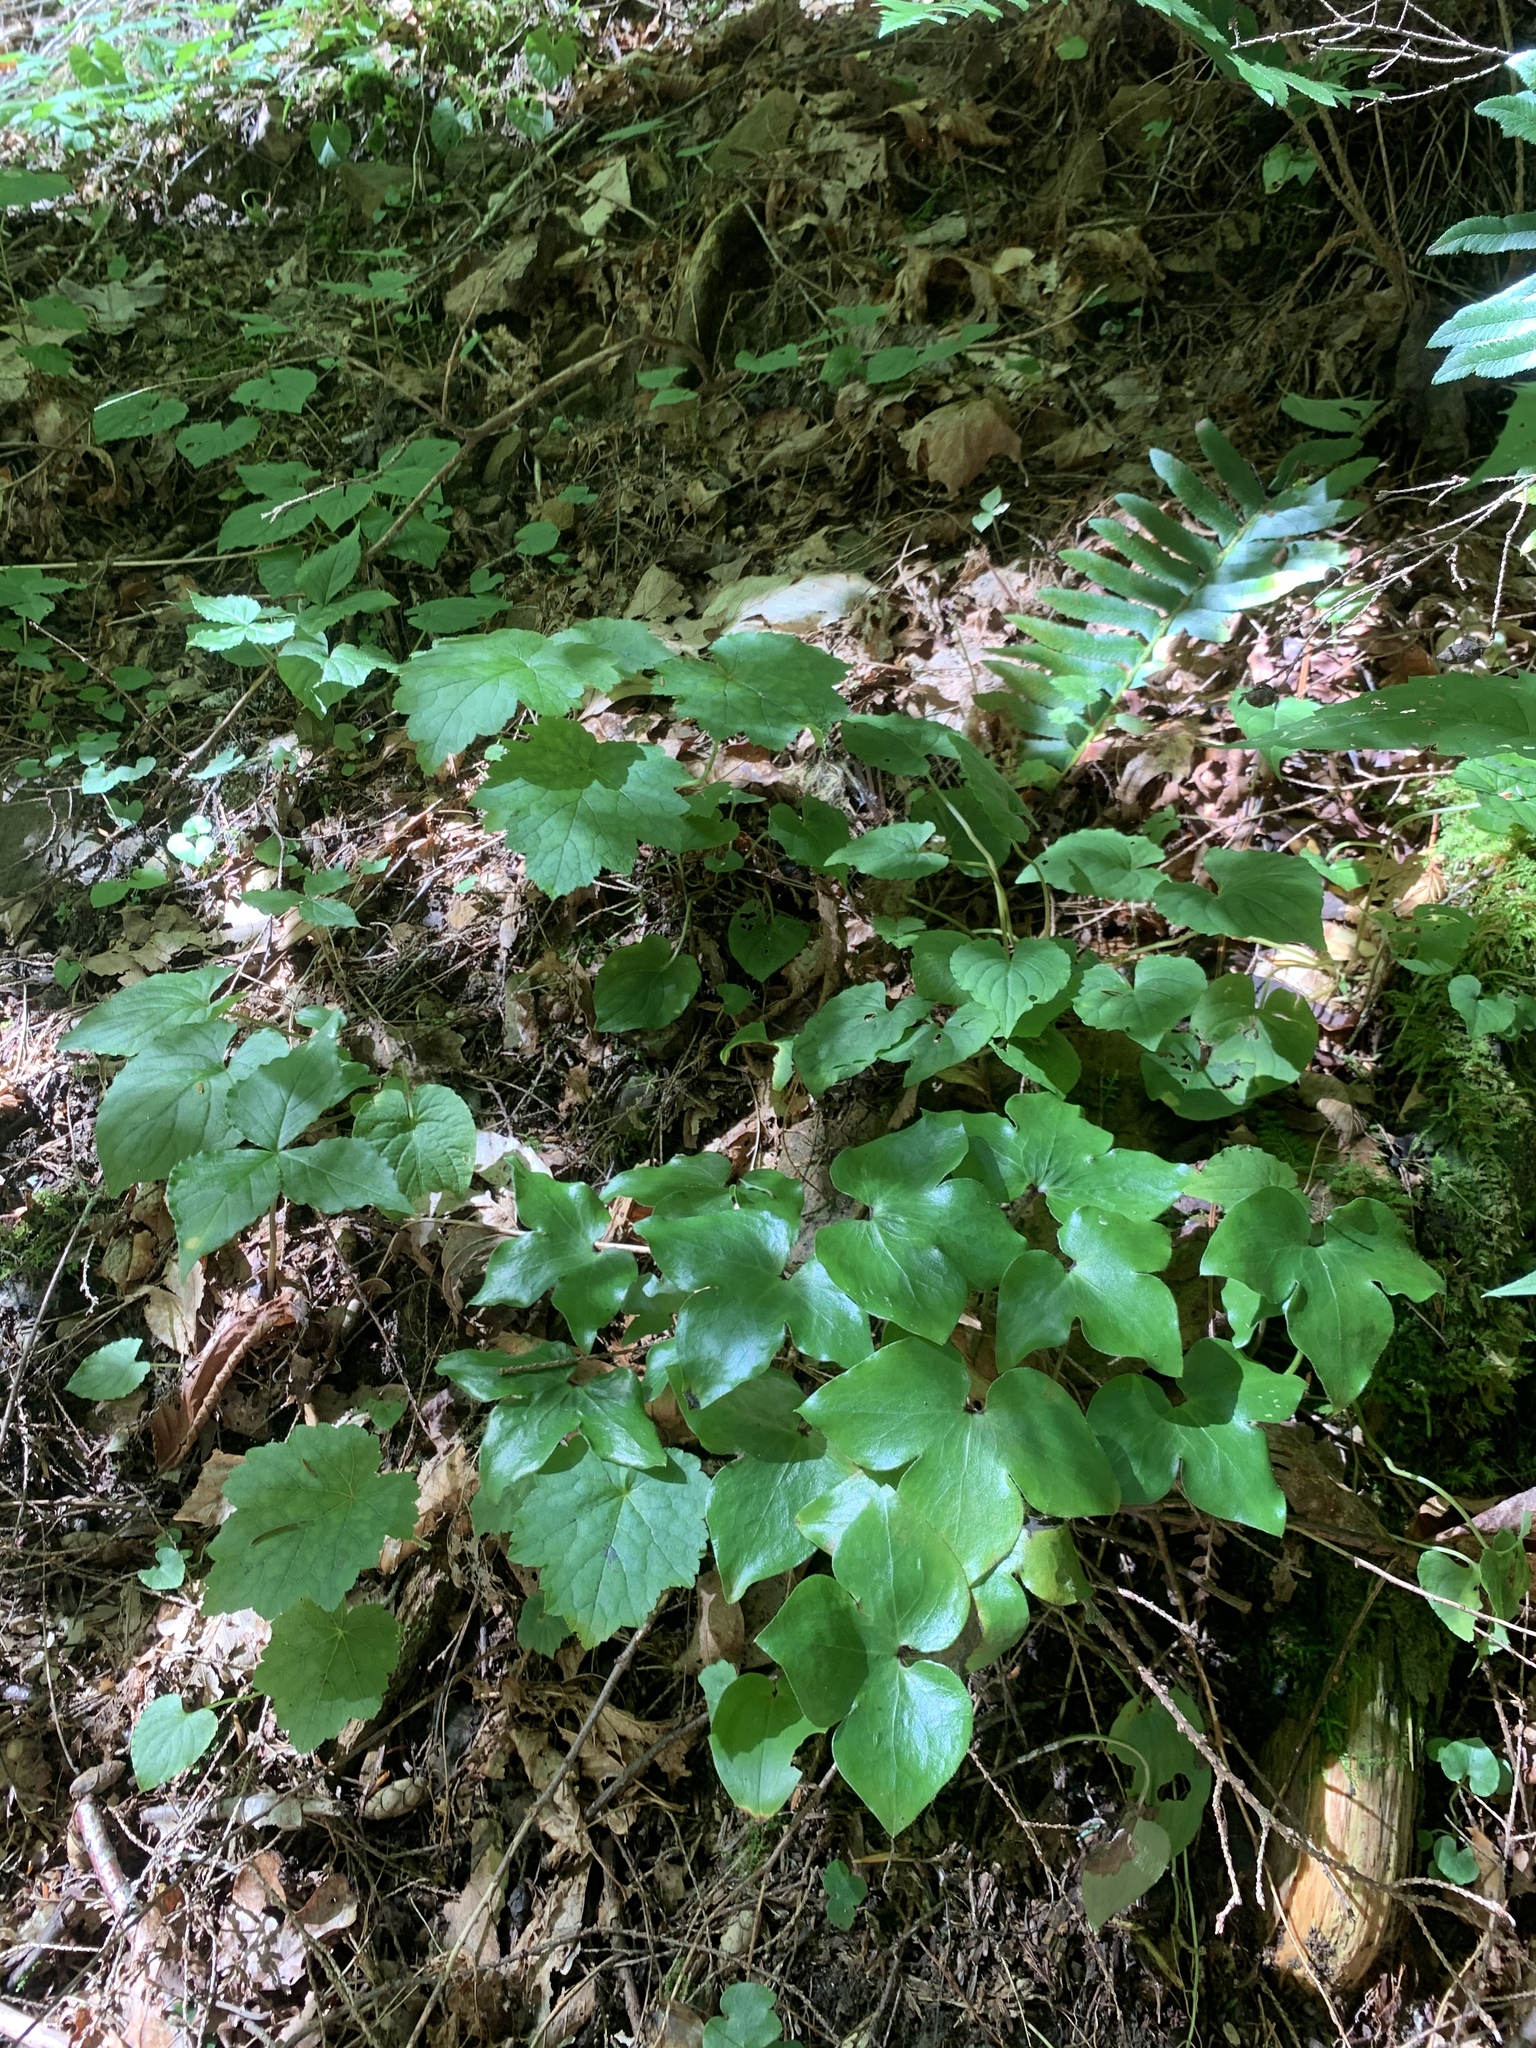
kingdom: Plantae
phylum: Tracheophyta
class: Magnoliopsida
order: Ranunculales
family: Ranunculaceae
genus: Hepatica
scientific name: Hepatica acutiloba
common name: Sharp-lobed hepatica
